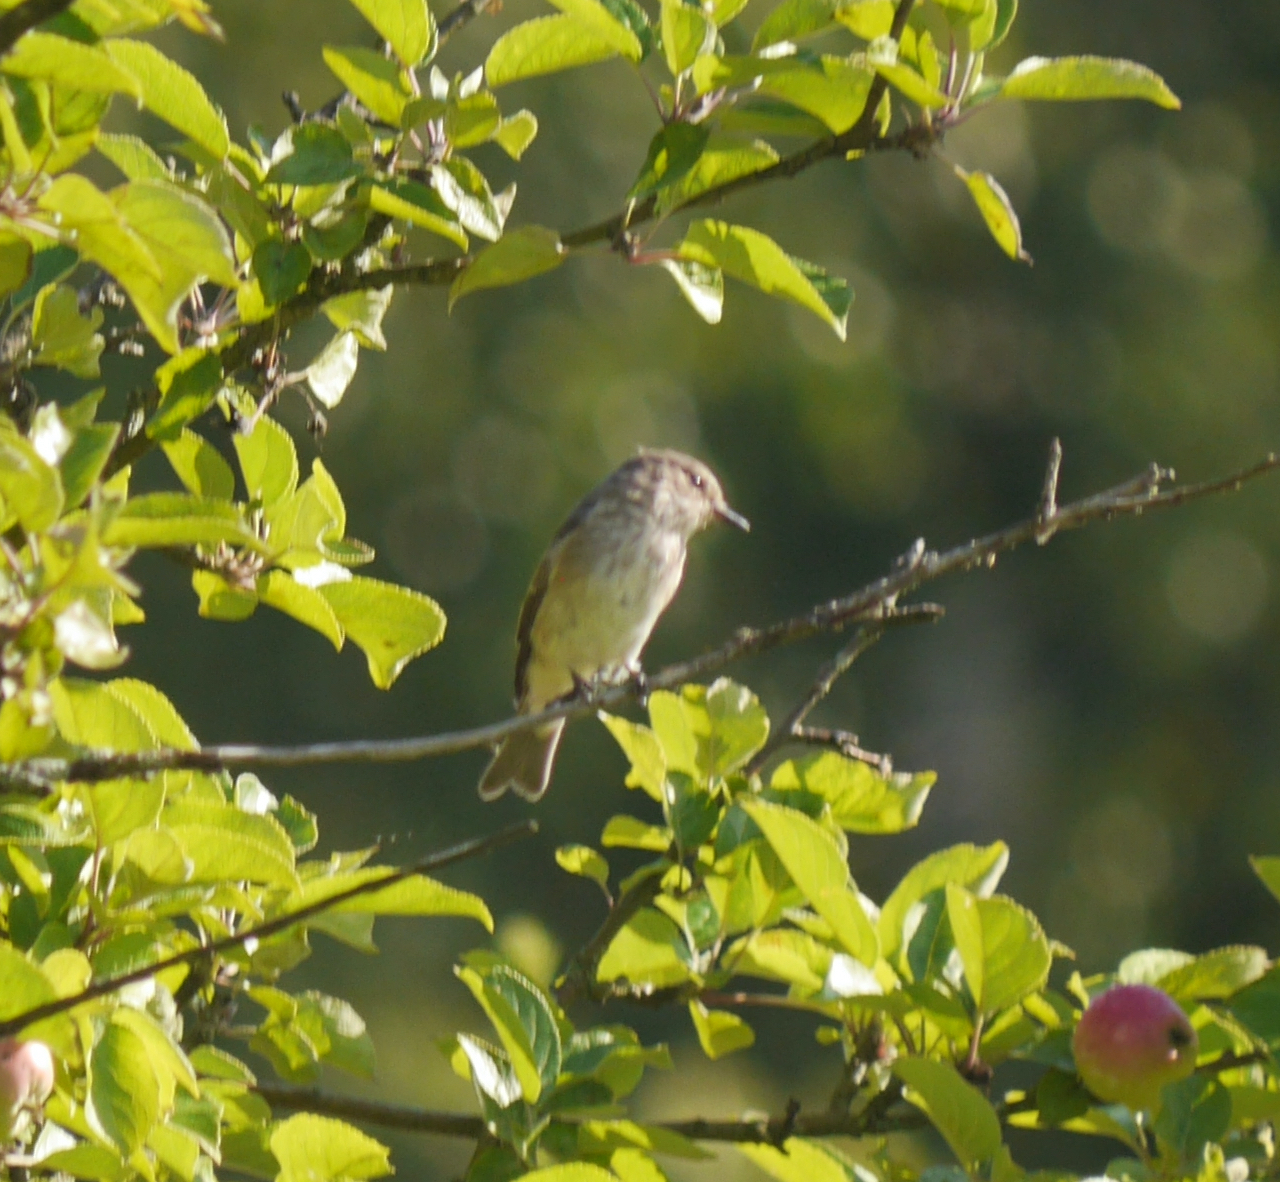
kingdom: Animalia
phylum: Chordata
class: Aves
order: Passeriformes
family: Muscicapidae
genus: Muscicapa
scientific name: Muscicapa striata
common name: Spotted flycatcher
